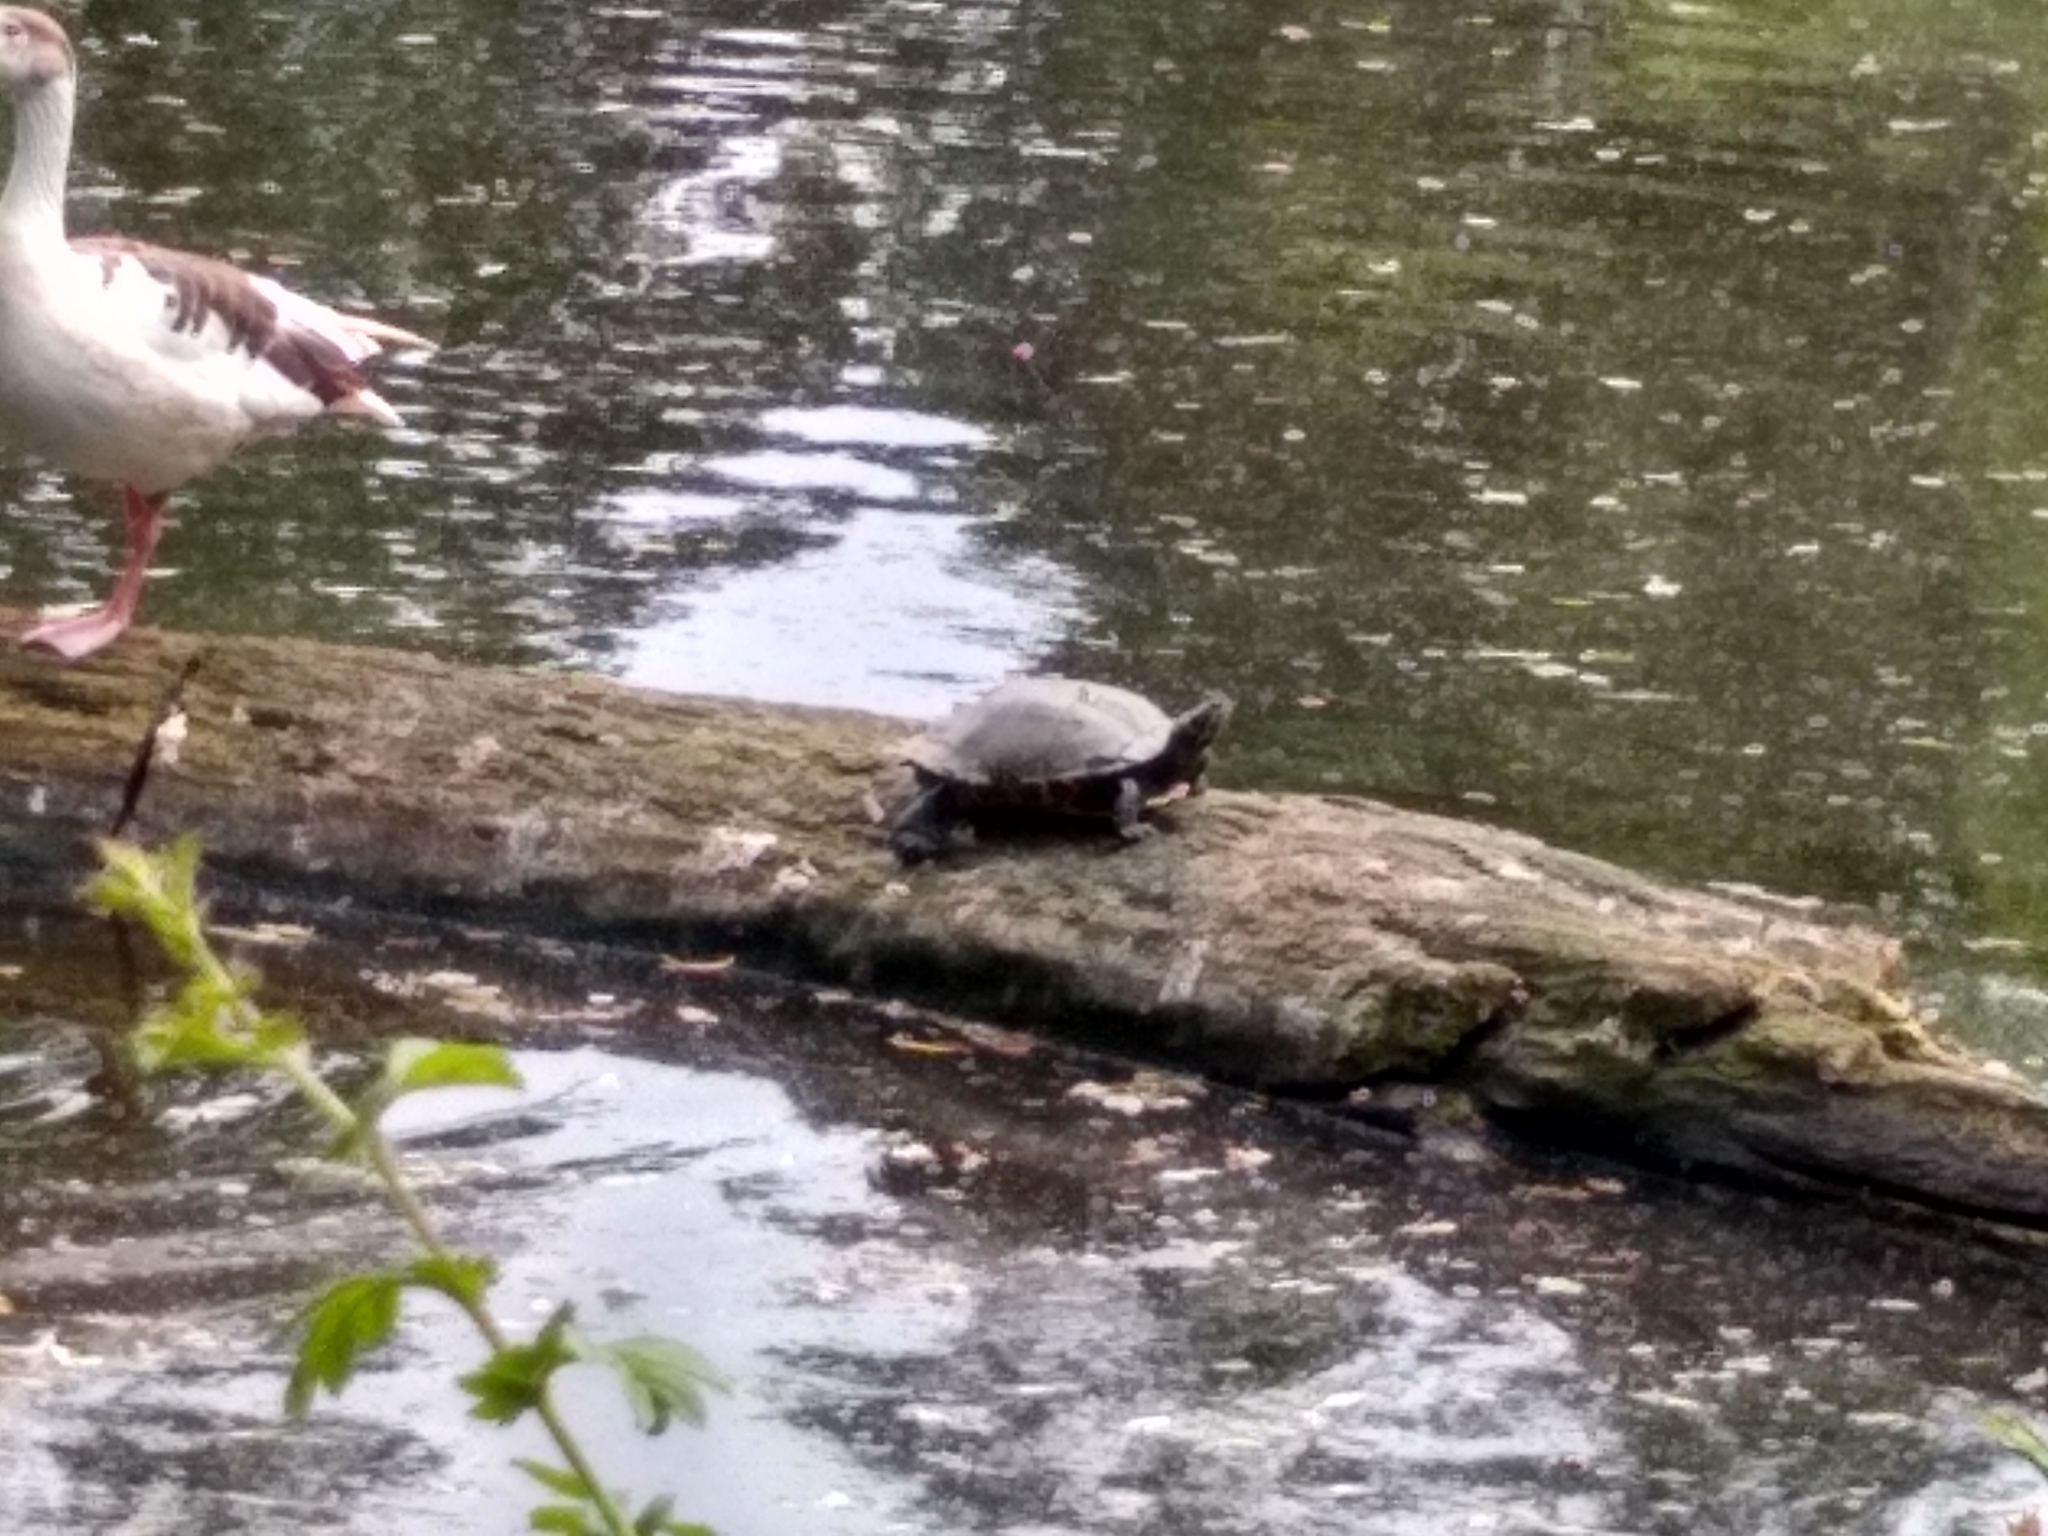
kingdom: Animalia
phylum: Chordata
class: Testudines
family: Emydidae
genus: Trachemys
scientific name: Trachemys scripta
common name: Slider
